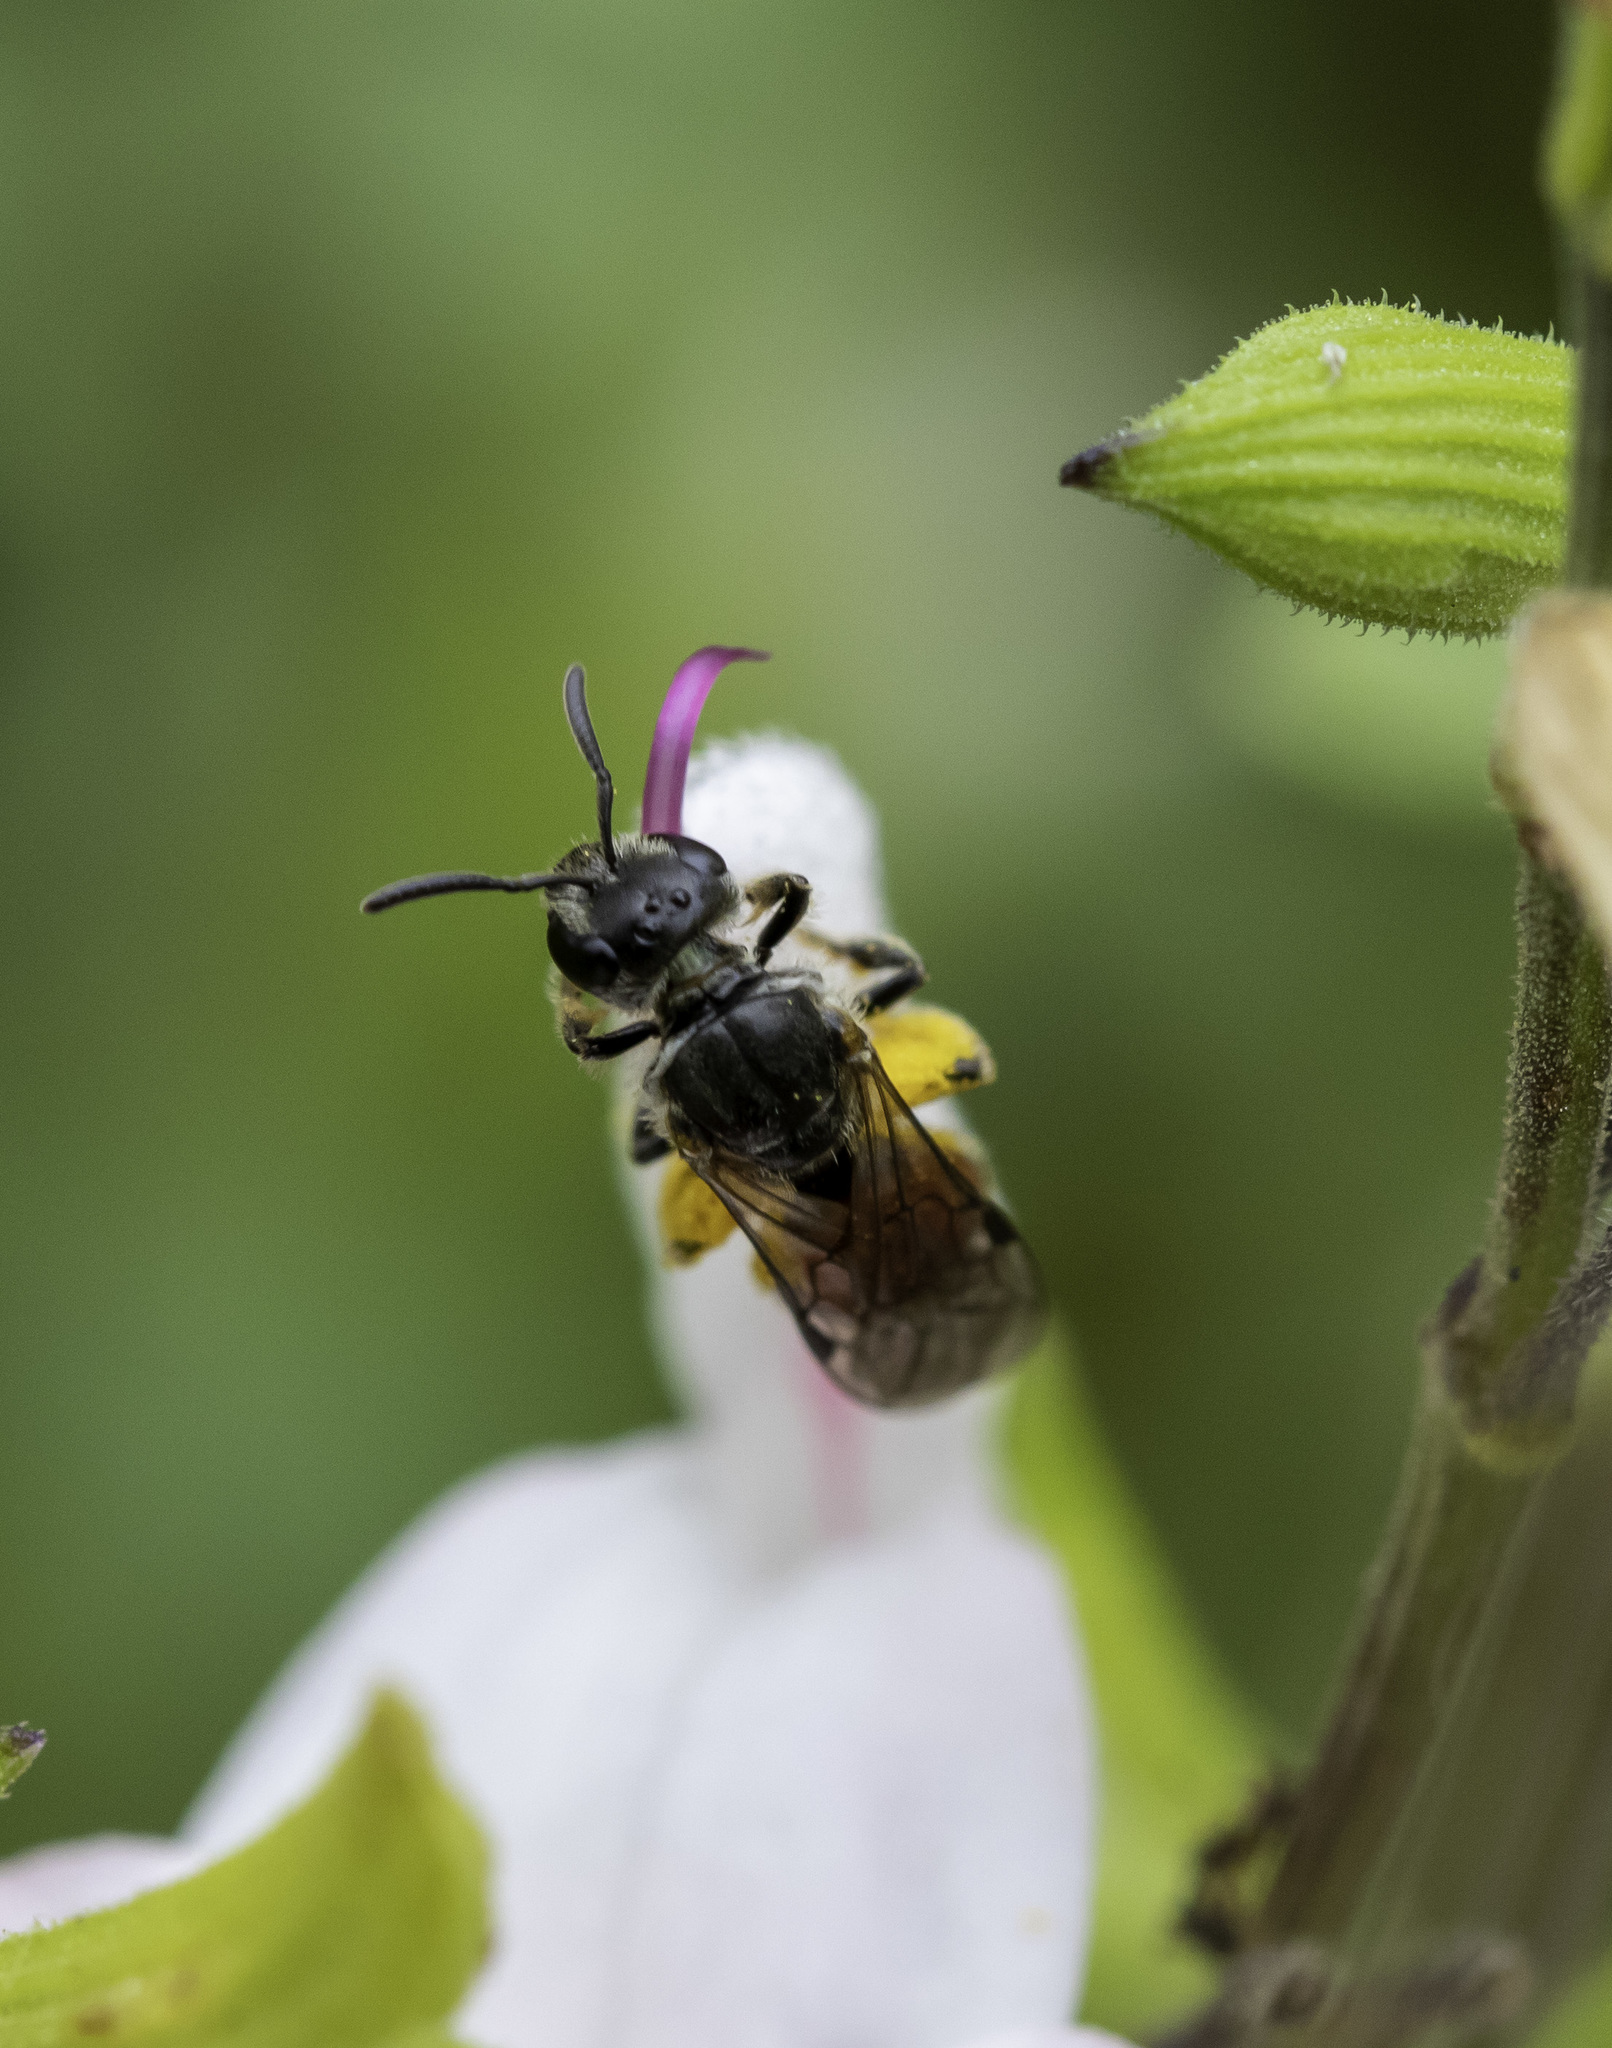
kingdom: Animalia
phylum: Arthropoda
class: Insecta
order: Hymenoptera
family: Halictidae
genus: Lasioglossum
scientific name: Lasioglossum ovaliceps
